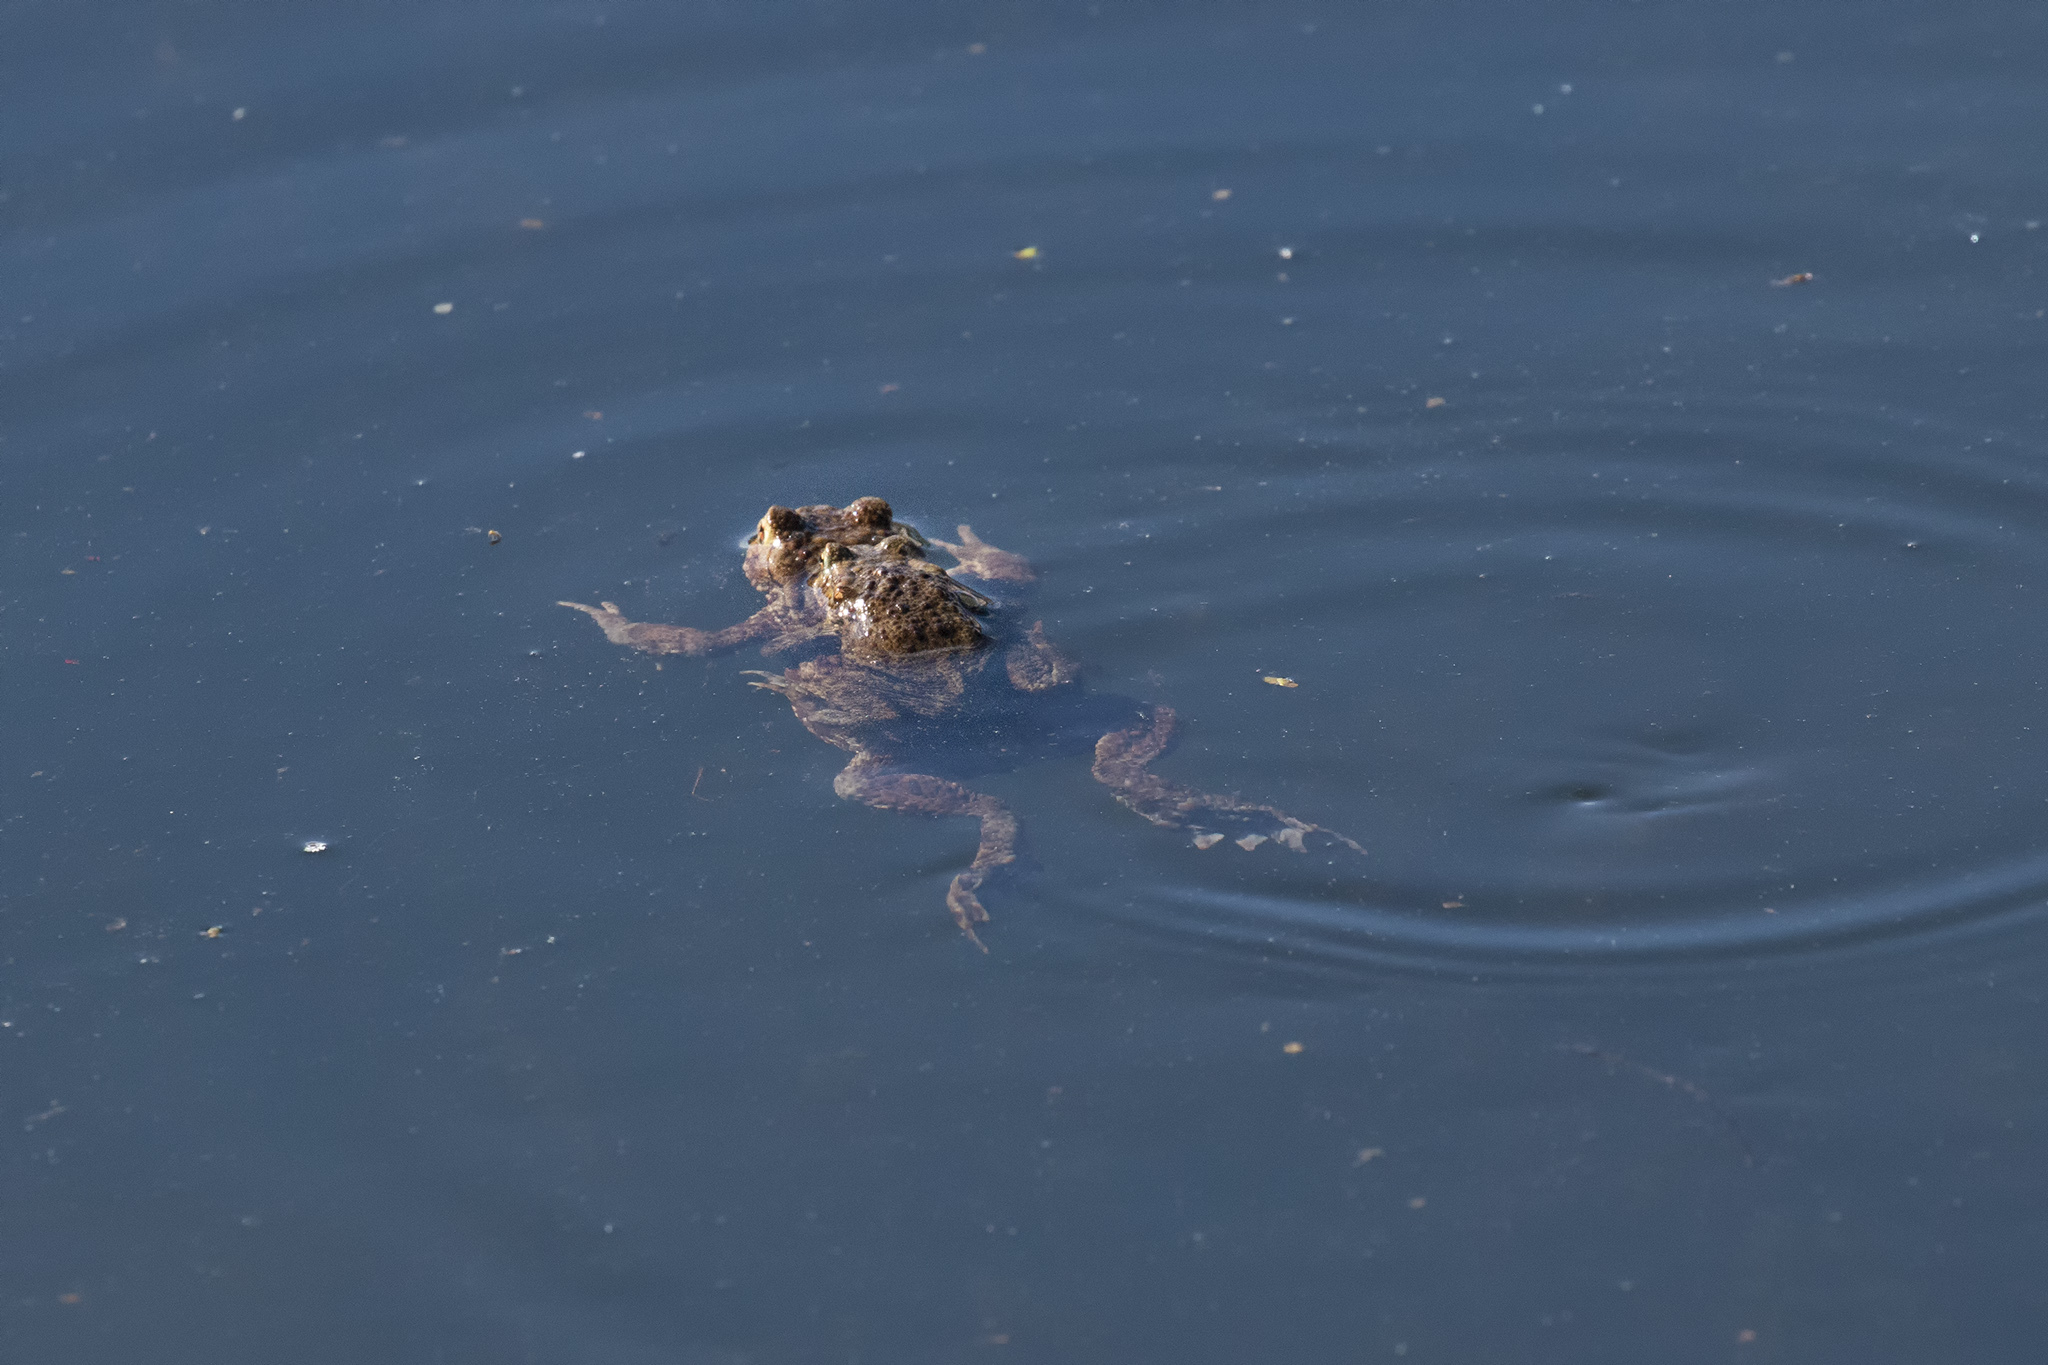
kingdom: Animalia
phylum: Chordata
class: Amphibia
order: Anura
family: Bufonidae
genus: Bufo
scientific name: Bufo bufo
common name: Common toad
